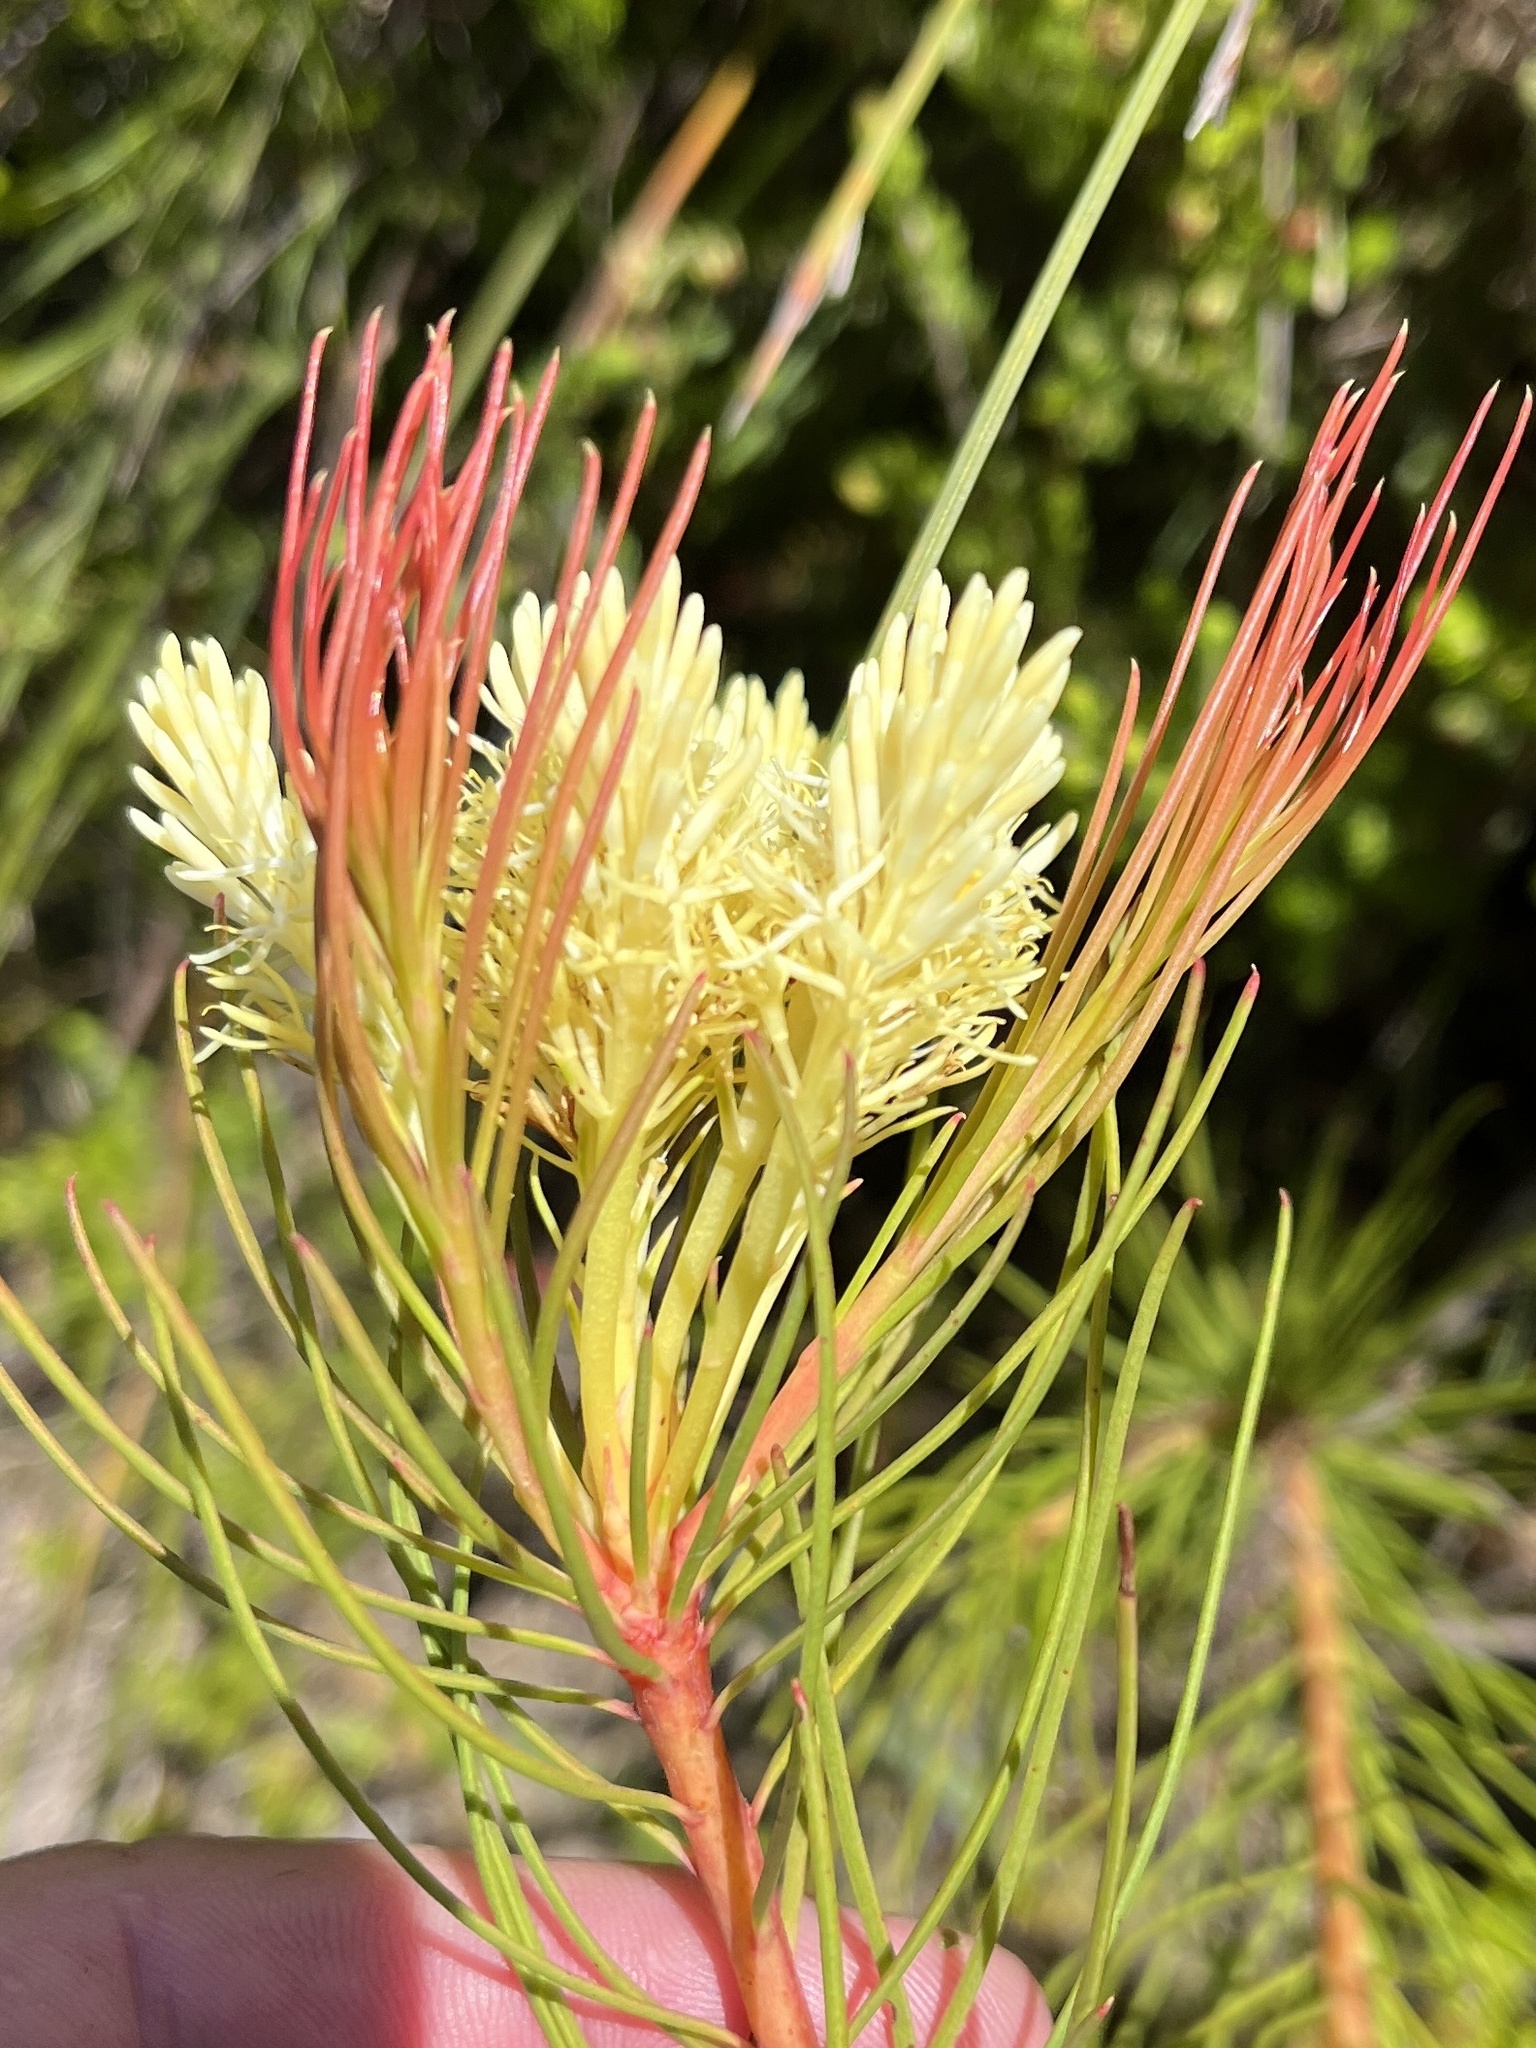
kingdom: Plantae
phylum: Tracheophyta
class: Magnoliopsida
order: Proteales
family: Proteaceae
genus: Aulax
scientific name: Aulax cancellata
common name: Channel-leaf featherbush
